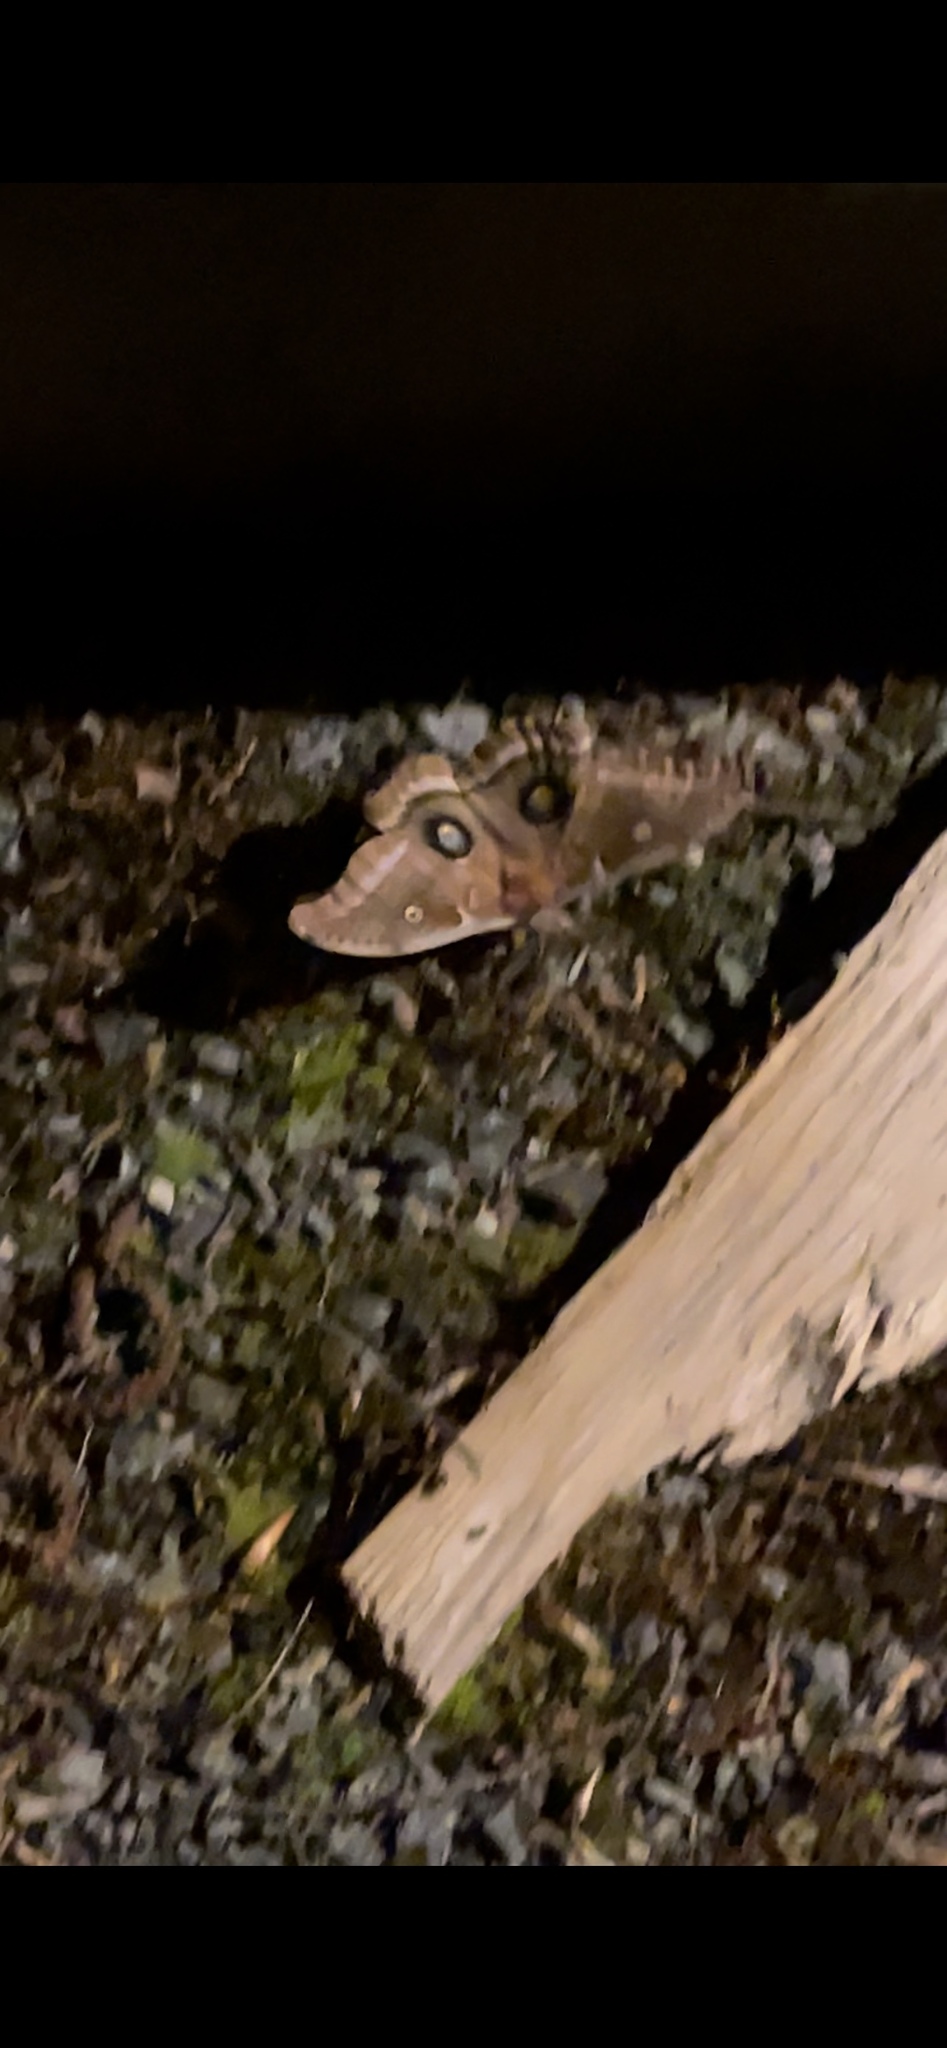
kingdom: Animalia
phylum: Arthropoda
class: Insecta
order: Lepidoptera
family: Saturniidae
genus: Antheraea
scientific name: Antheraea polyphemus
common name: Polyphemus moth
